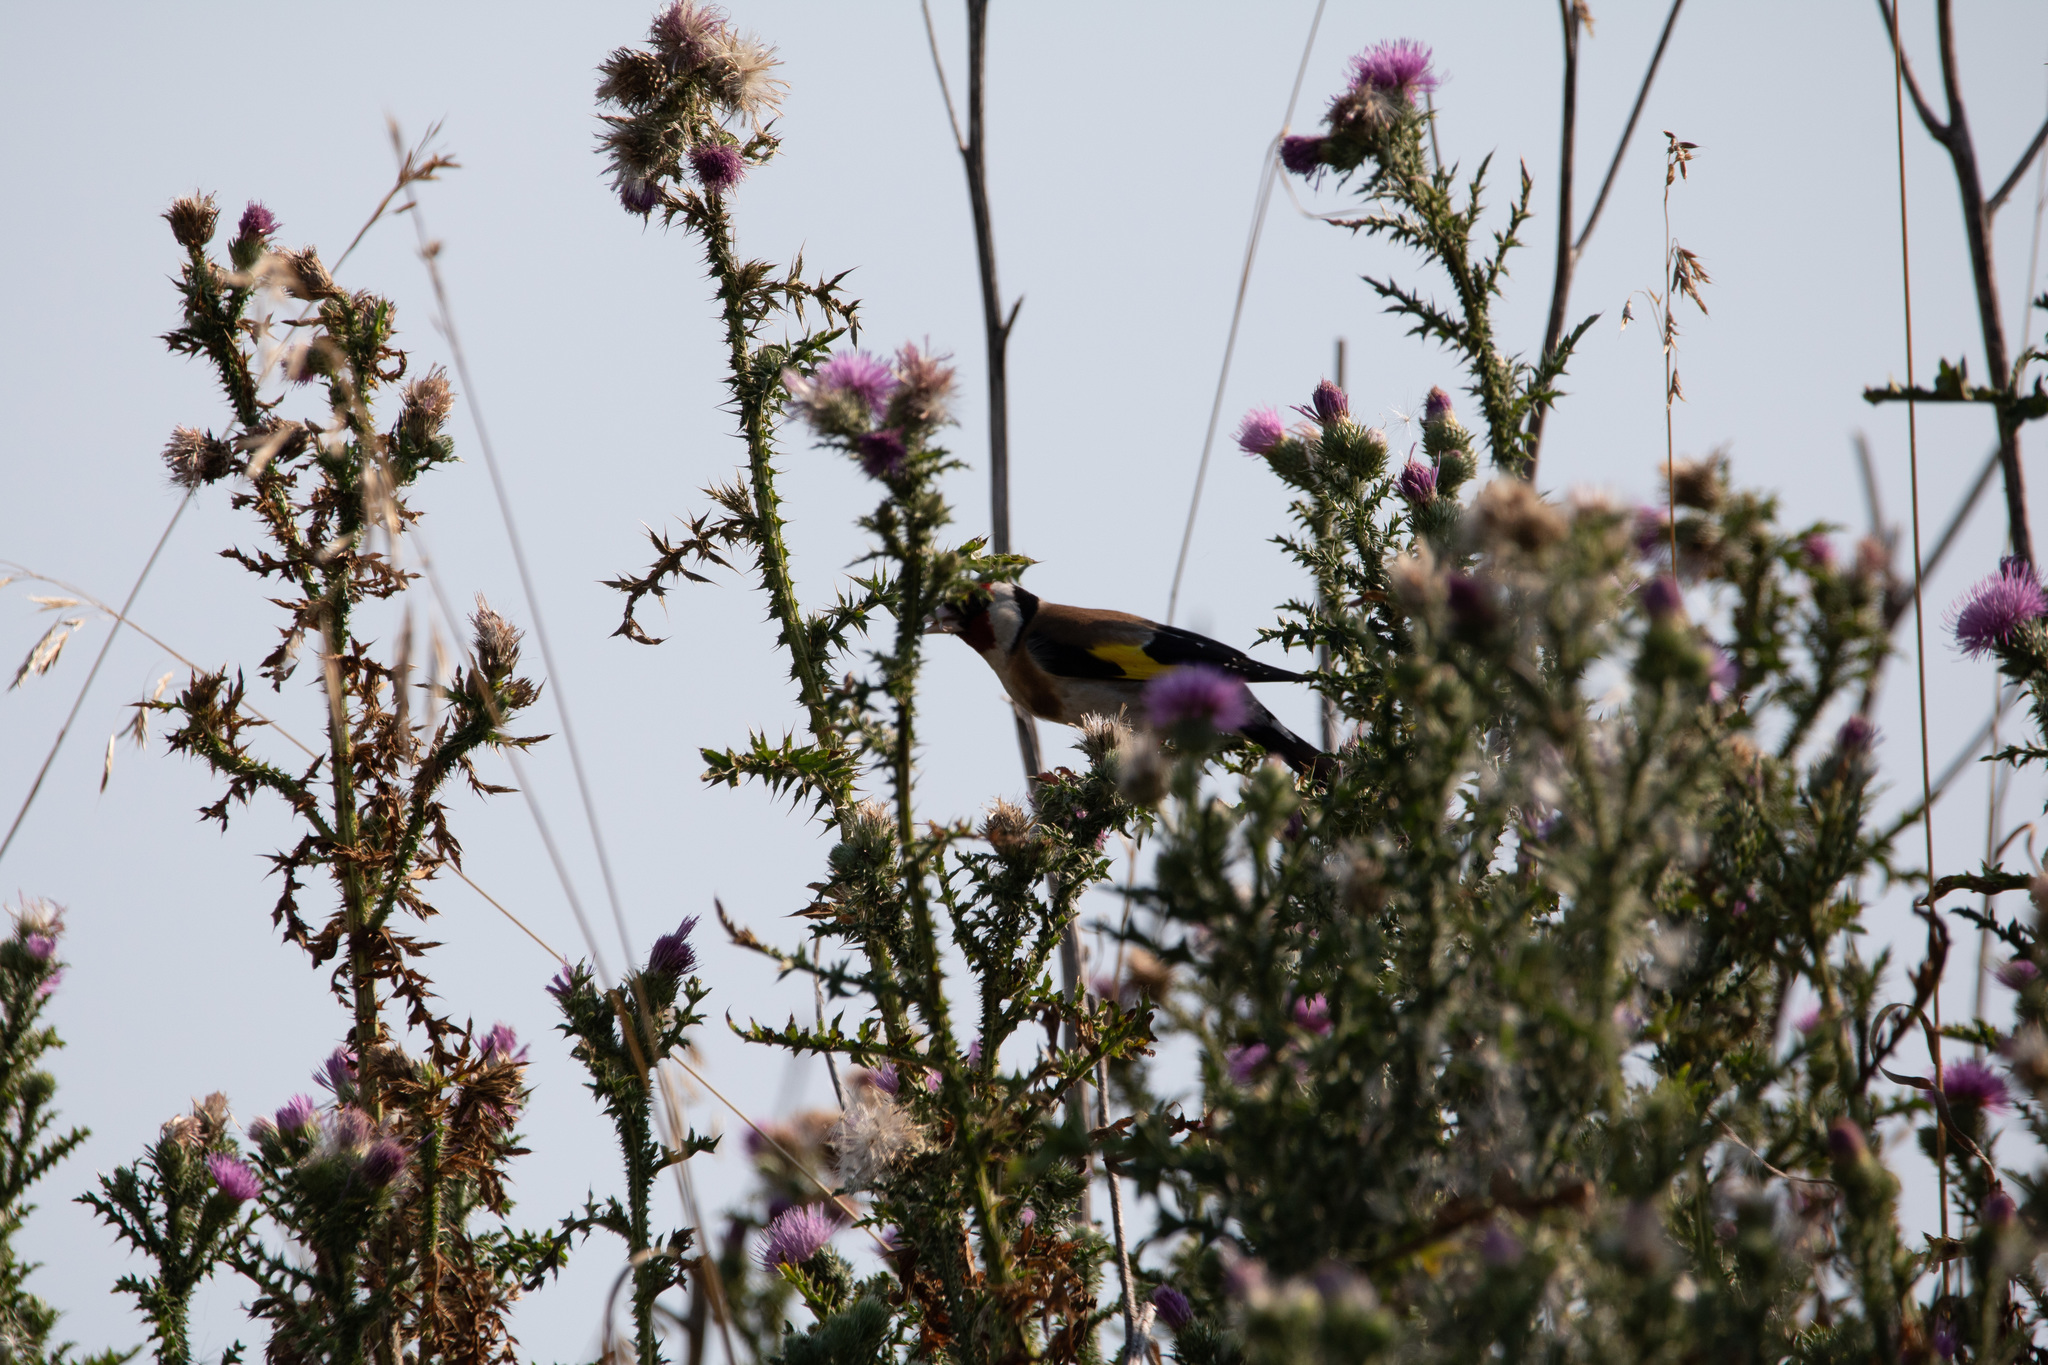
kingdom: Animalia
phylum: Chordata
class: Aves
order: Passeriformes
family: Fringillidae
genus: Carduelis
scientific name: Carduelis carduelis
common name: European goldfinch
